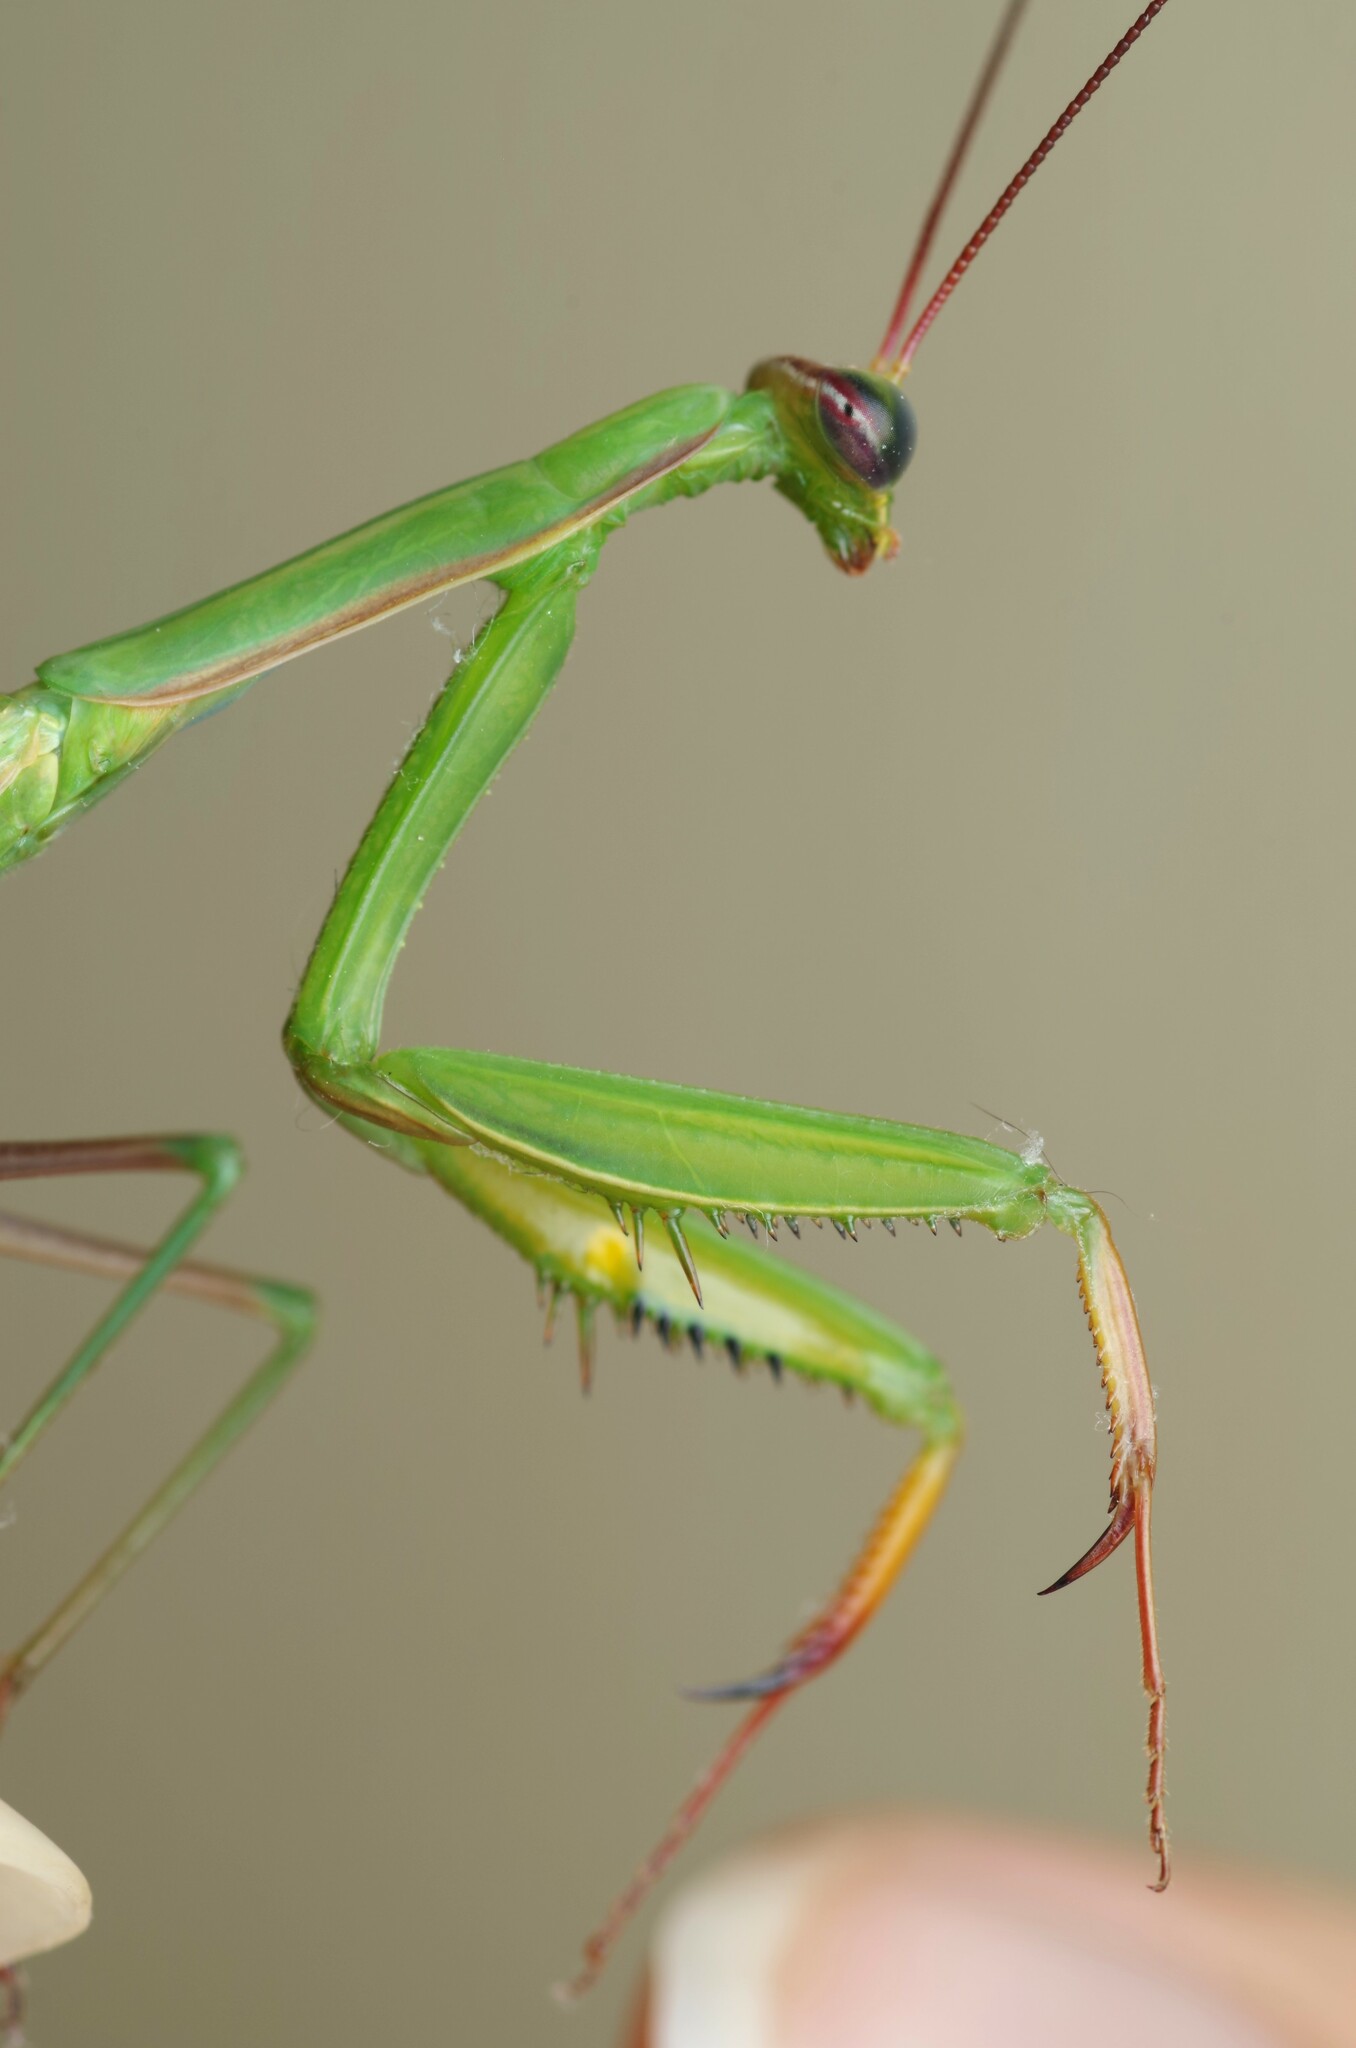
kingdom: Animalia
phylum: Arthropoda
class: Insecta
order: Mantodea
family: Mantidae
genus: Mantis
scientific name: Mantis religiosa
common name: Praying mantis
